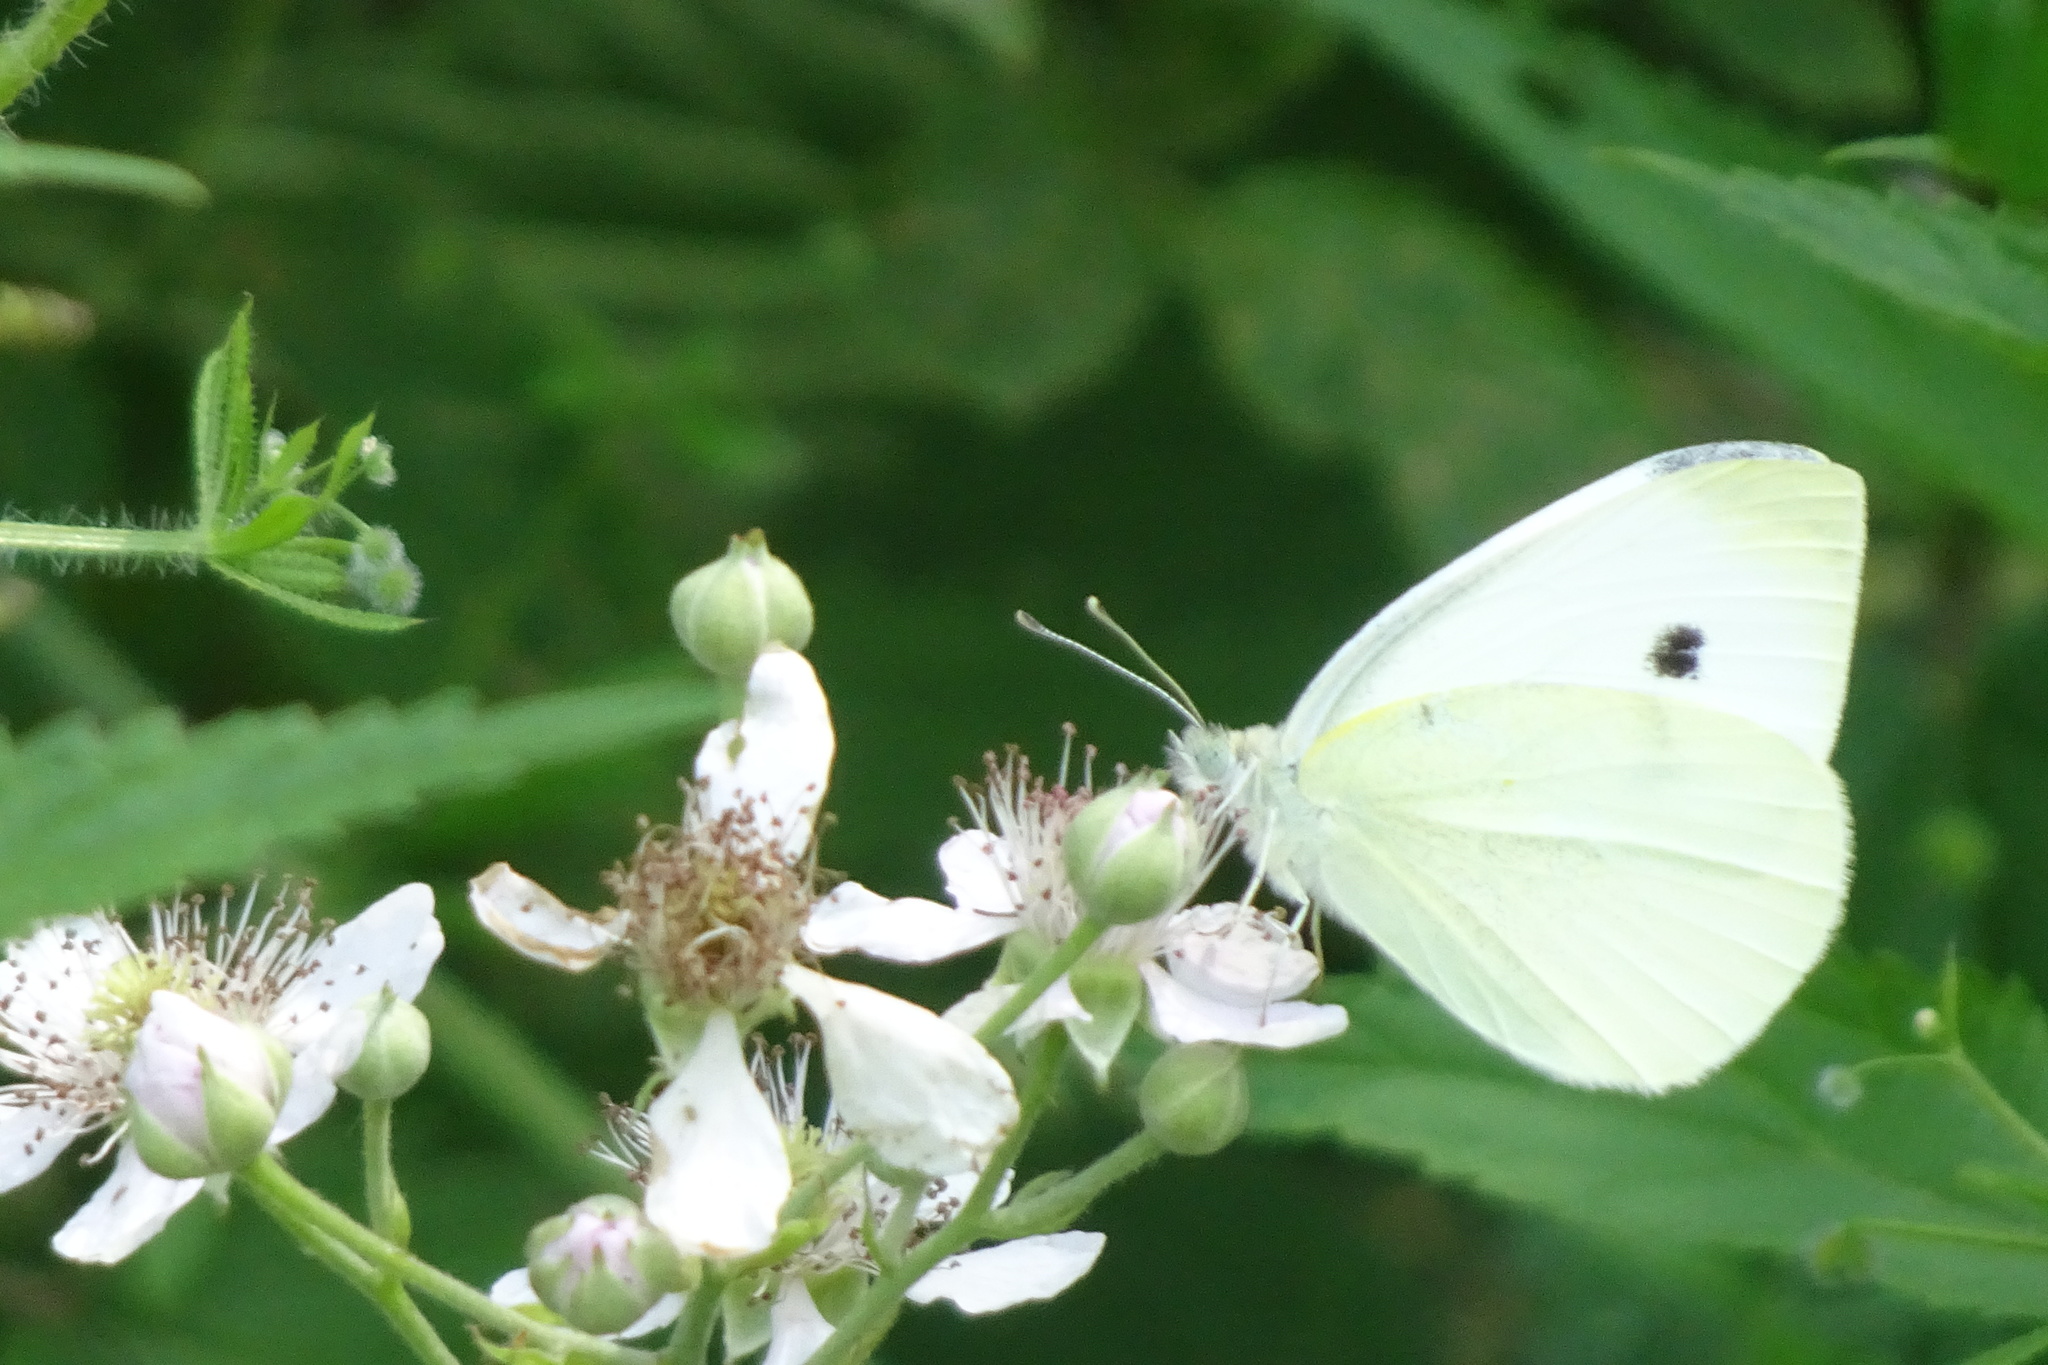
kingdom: Animalia
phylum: Arthropoda
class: Insecta
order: Lepidoptera
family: Pieridae
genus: Pieris
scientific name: Pieris rapae
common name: Small white
